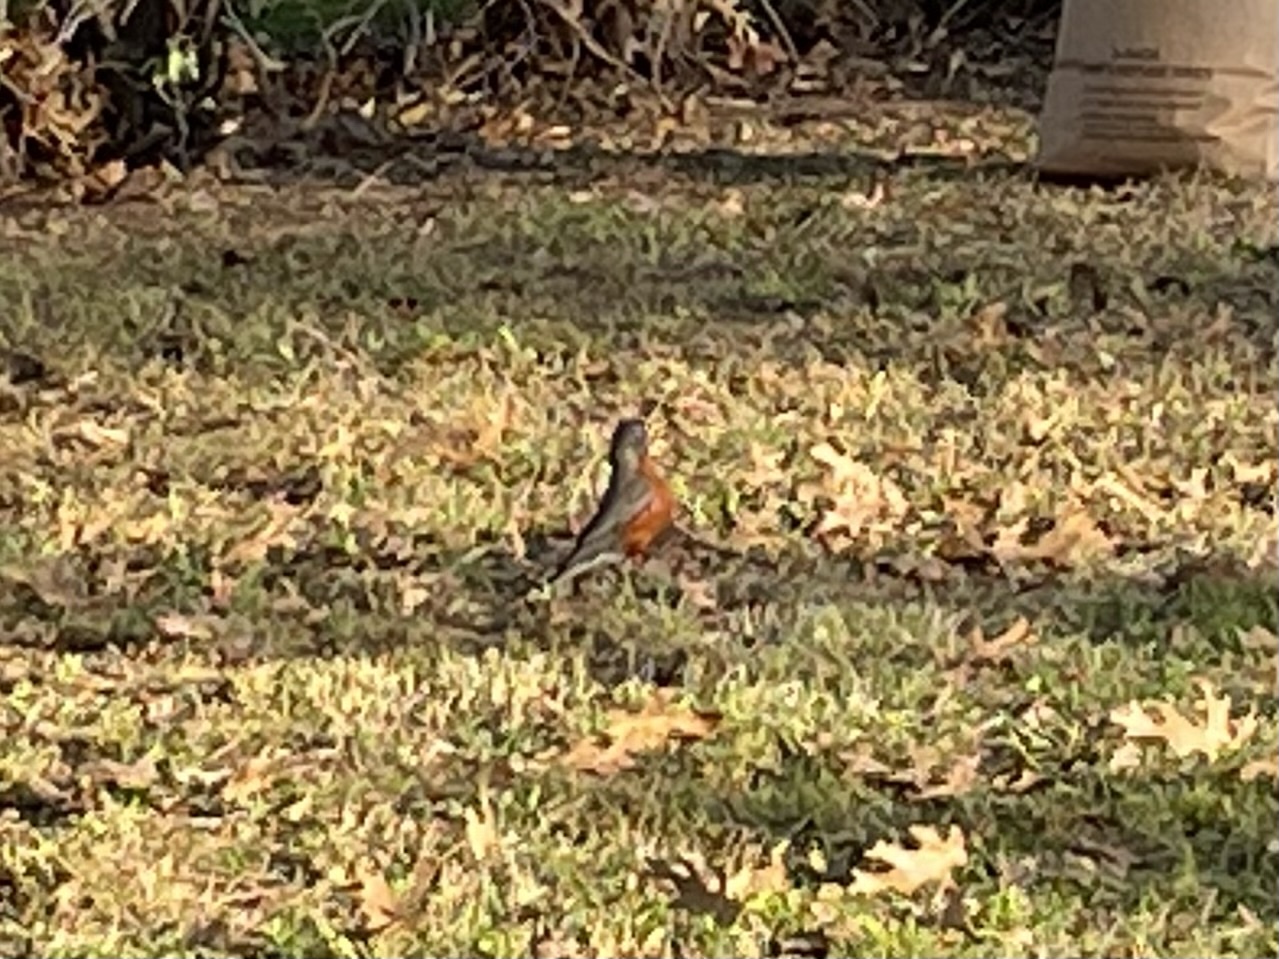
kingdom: Animalia
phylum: Chordata
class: Aves
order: Passeriformes
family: Turdidae
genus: Turdus
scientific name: Turdus migratorius
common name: American robin
